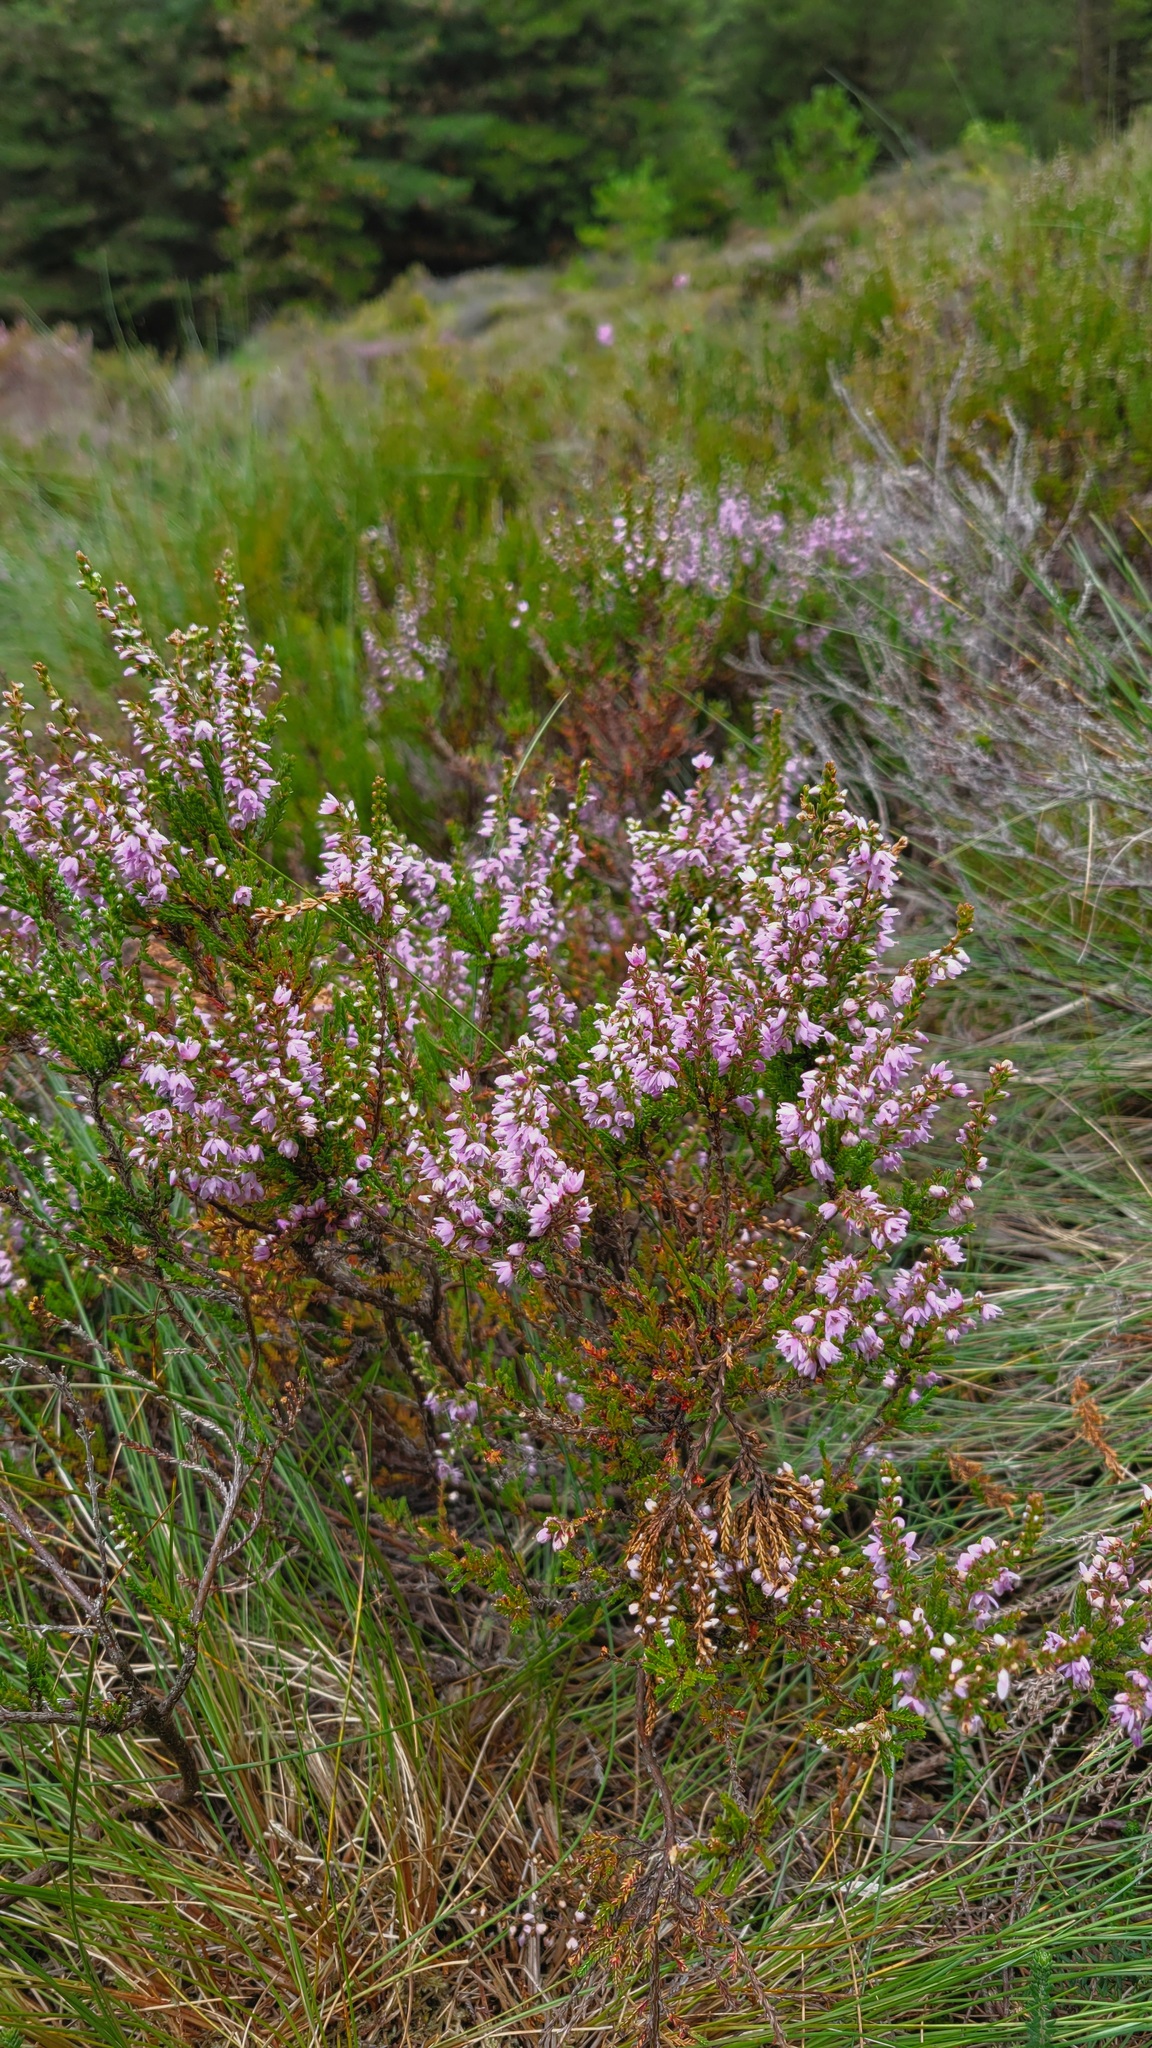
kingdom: Plantae
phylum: Tracheophyta
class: Magnoliopsida
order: Ericales
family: Ericaceae
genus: Calluna
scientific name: Calluna vulgaris
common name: Heather
